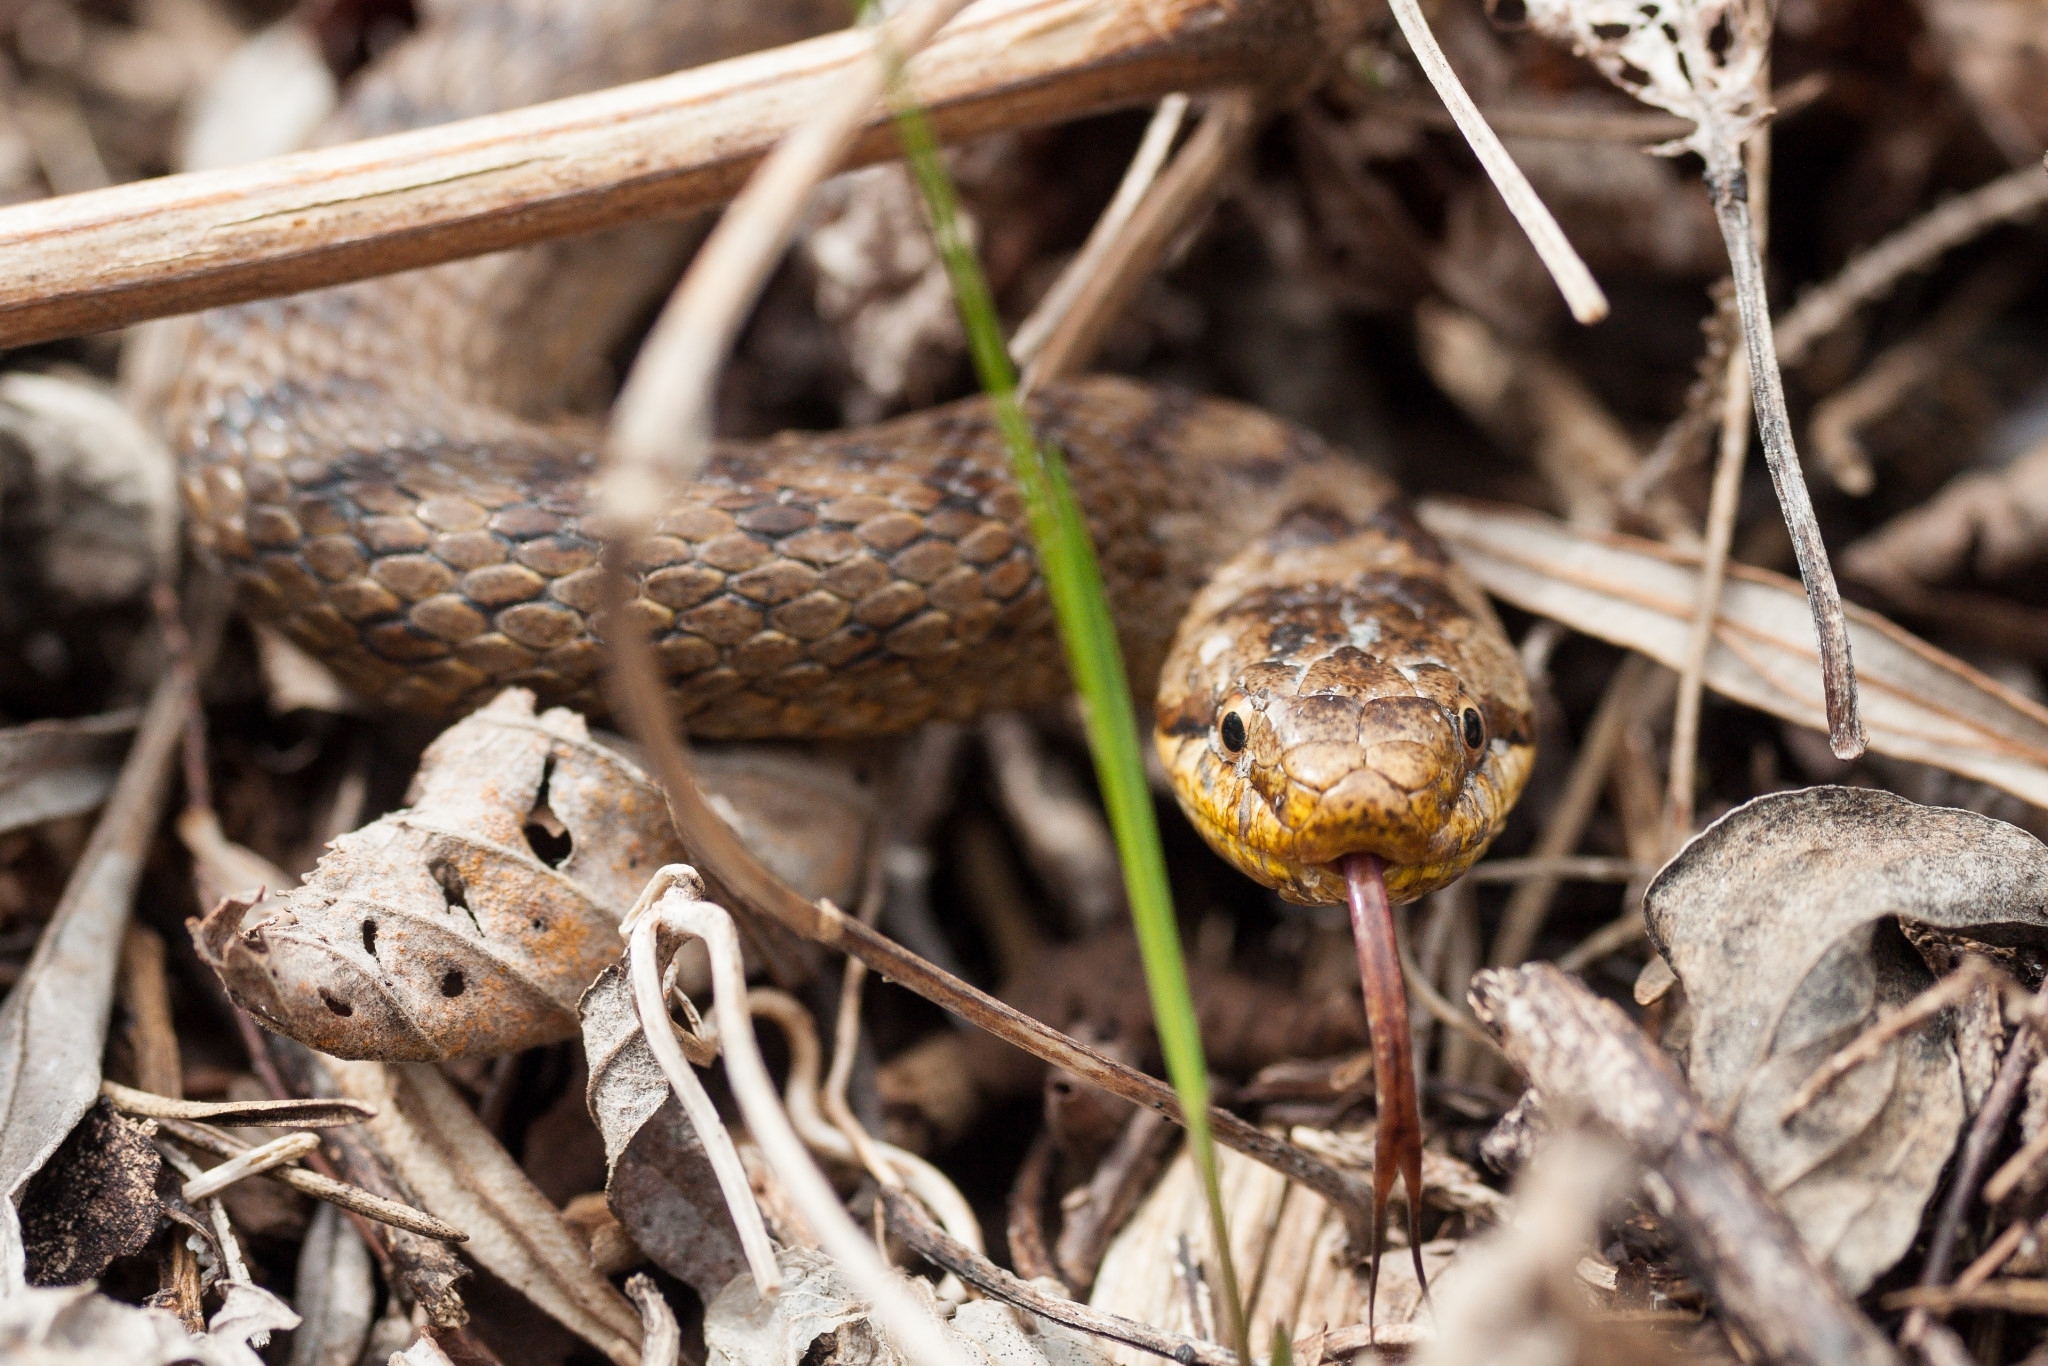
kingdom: Animalia
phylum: Chordata
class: Squamata
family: Colubridae
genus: Coronella
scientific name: Coronella austriaca
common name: Smooth snake
